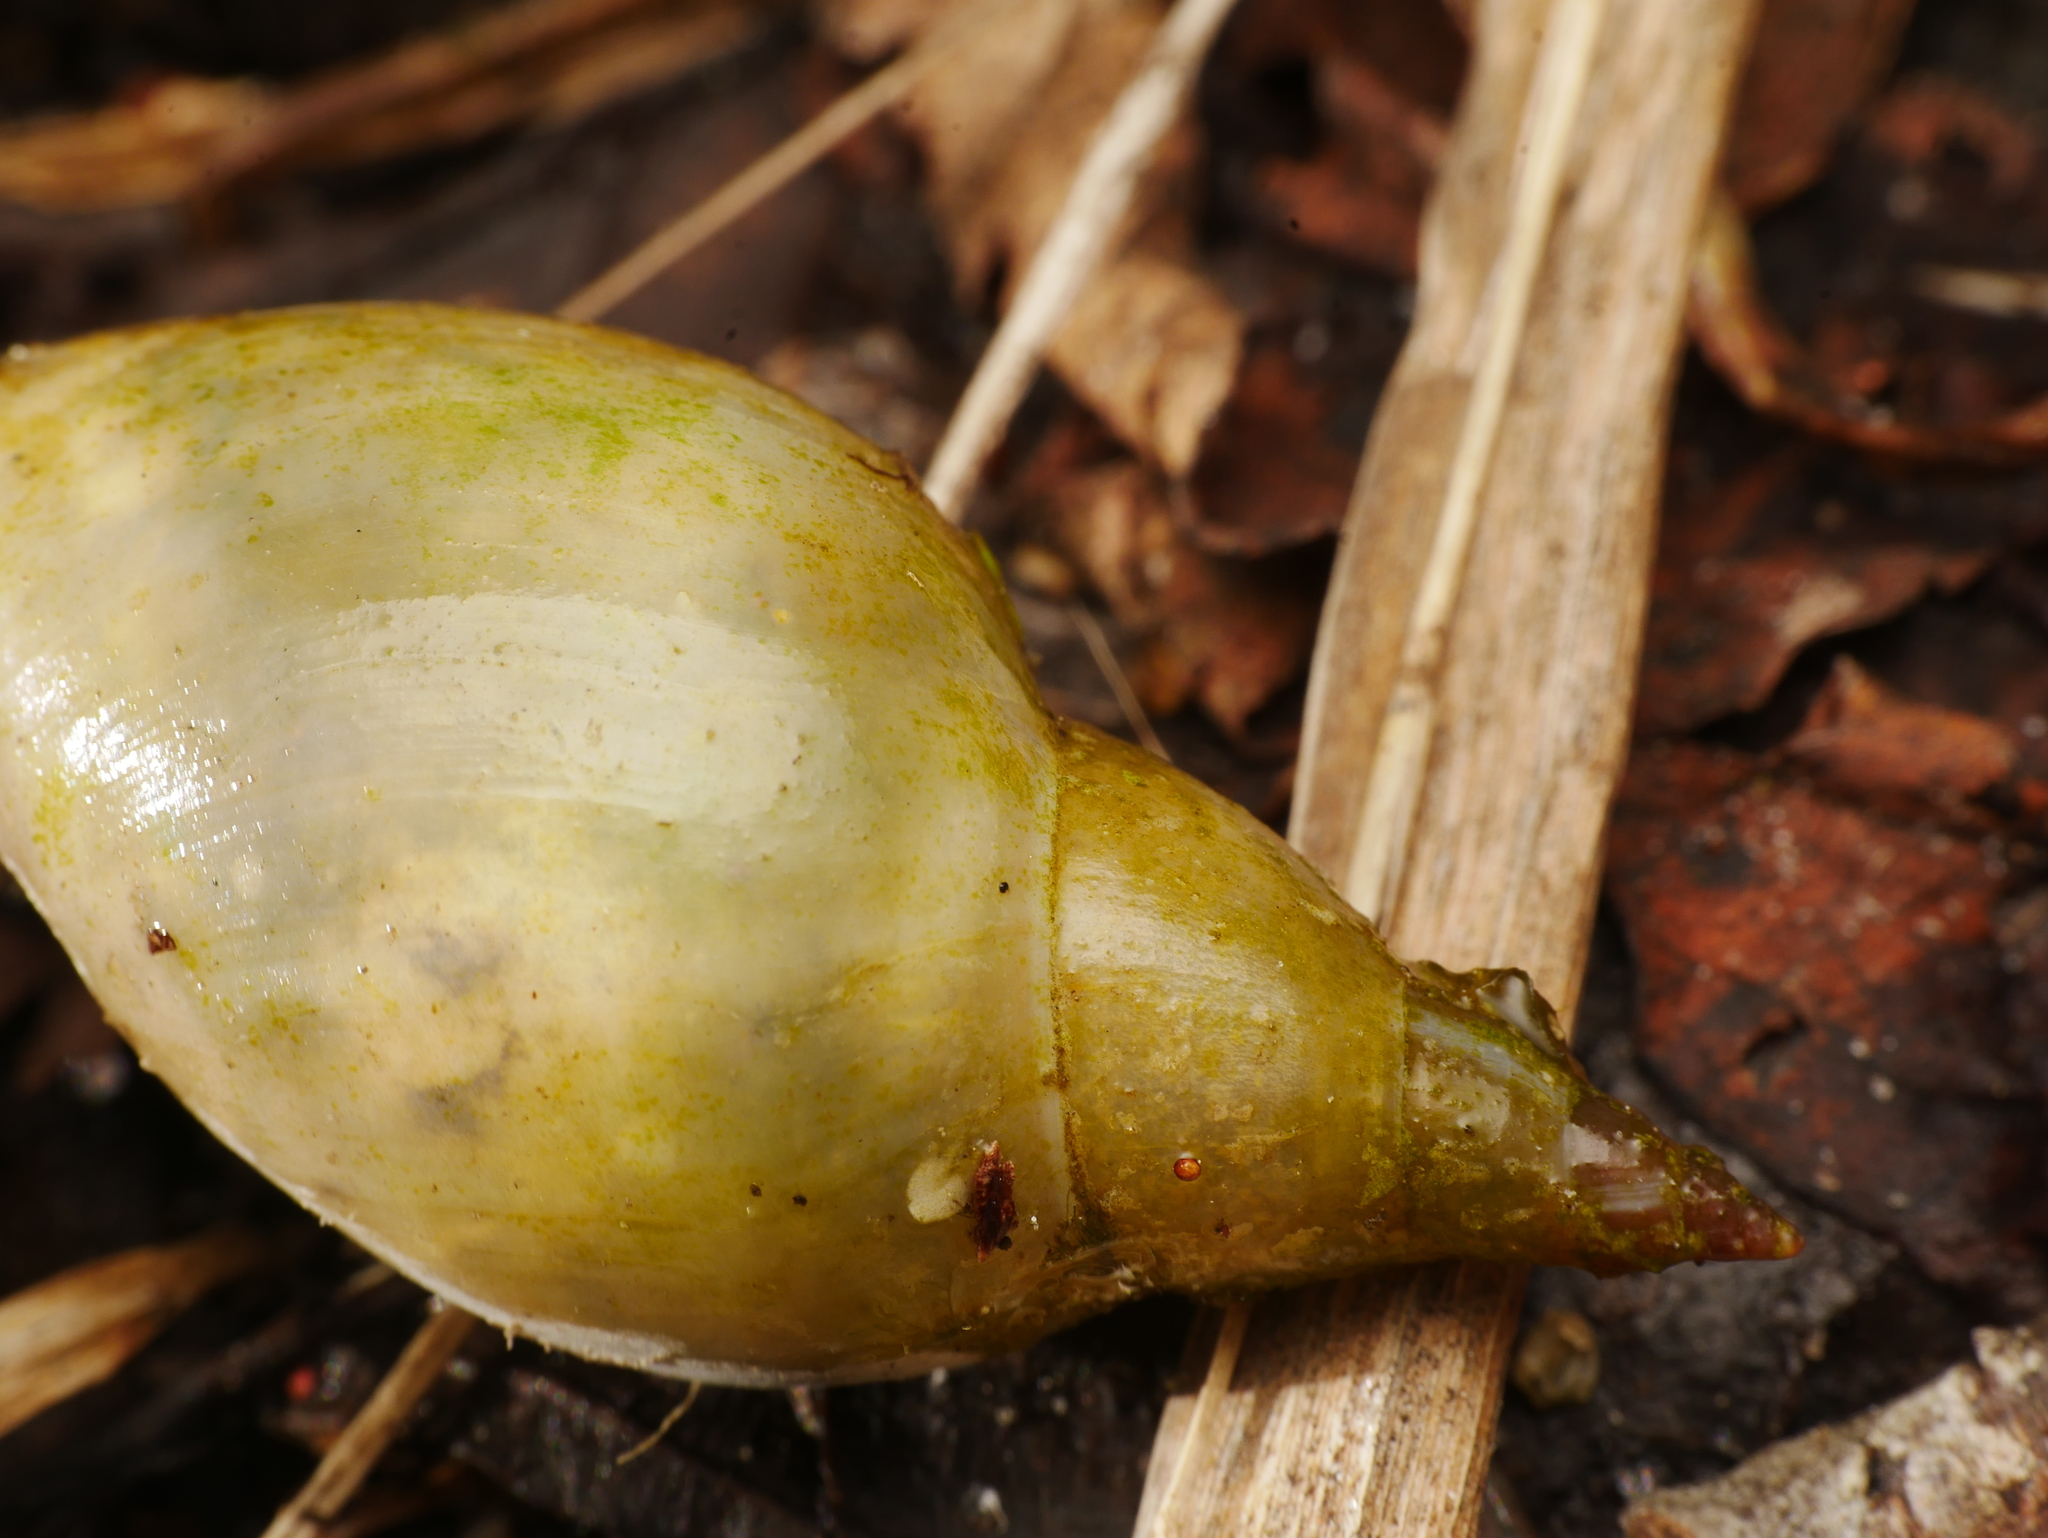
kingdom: Animalia
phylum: Mollusca
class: Gastropoda
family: Lymnaeidae
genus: Lymnaea
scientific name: Lymnaea stagnalis
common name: Great pond snail
